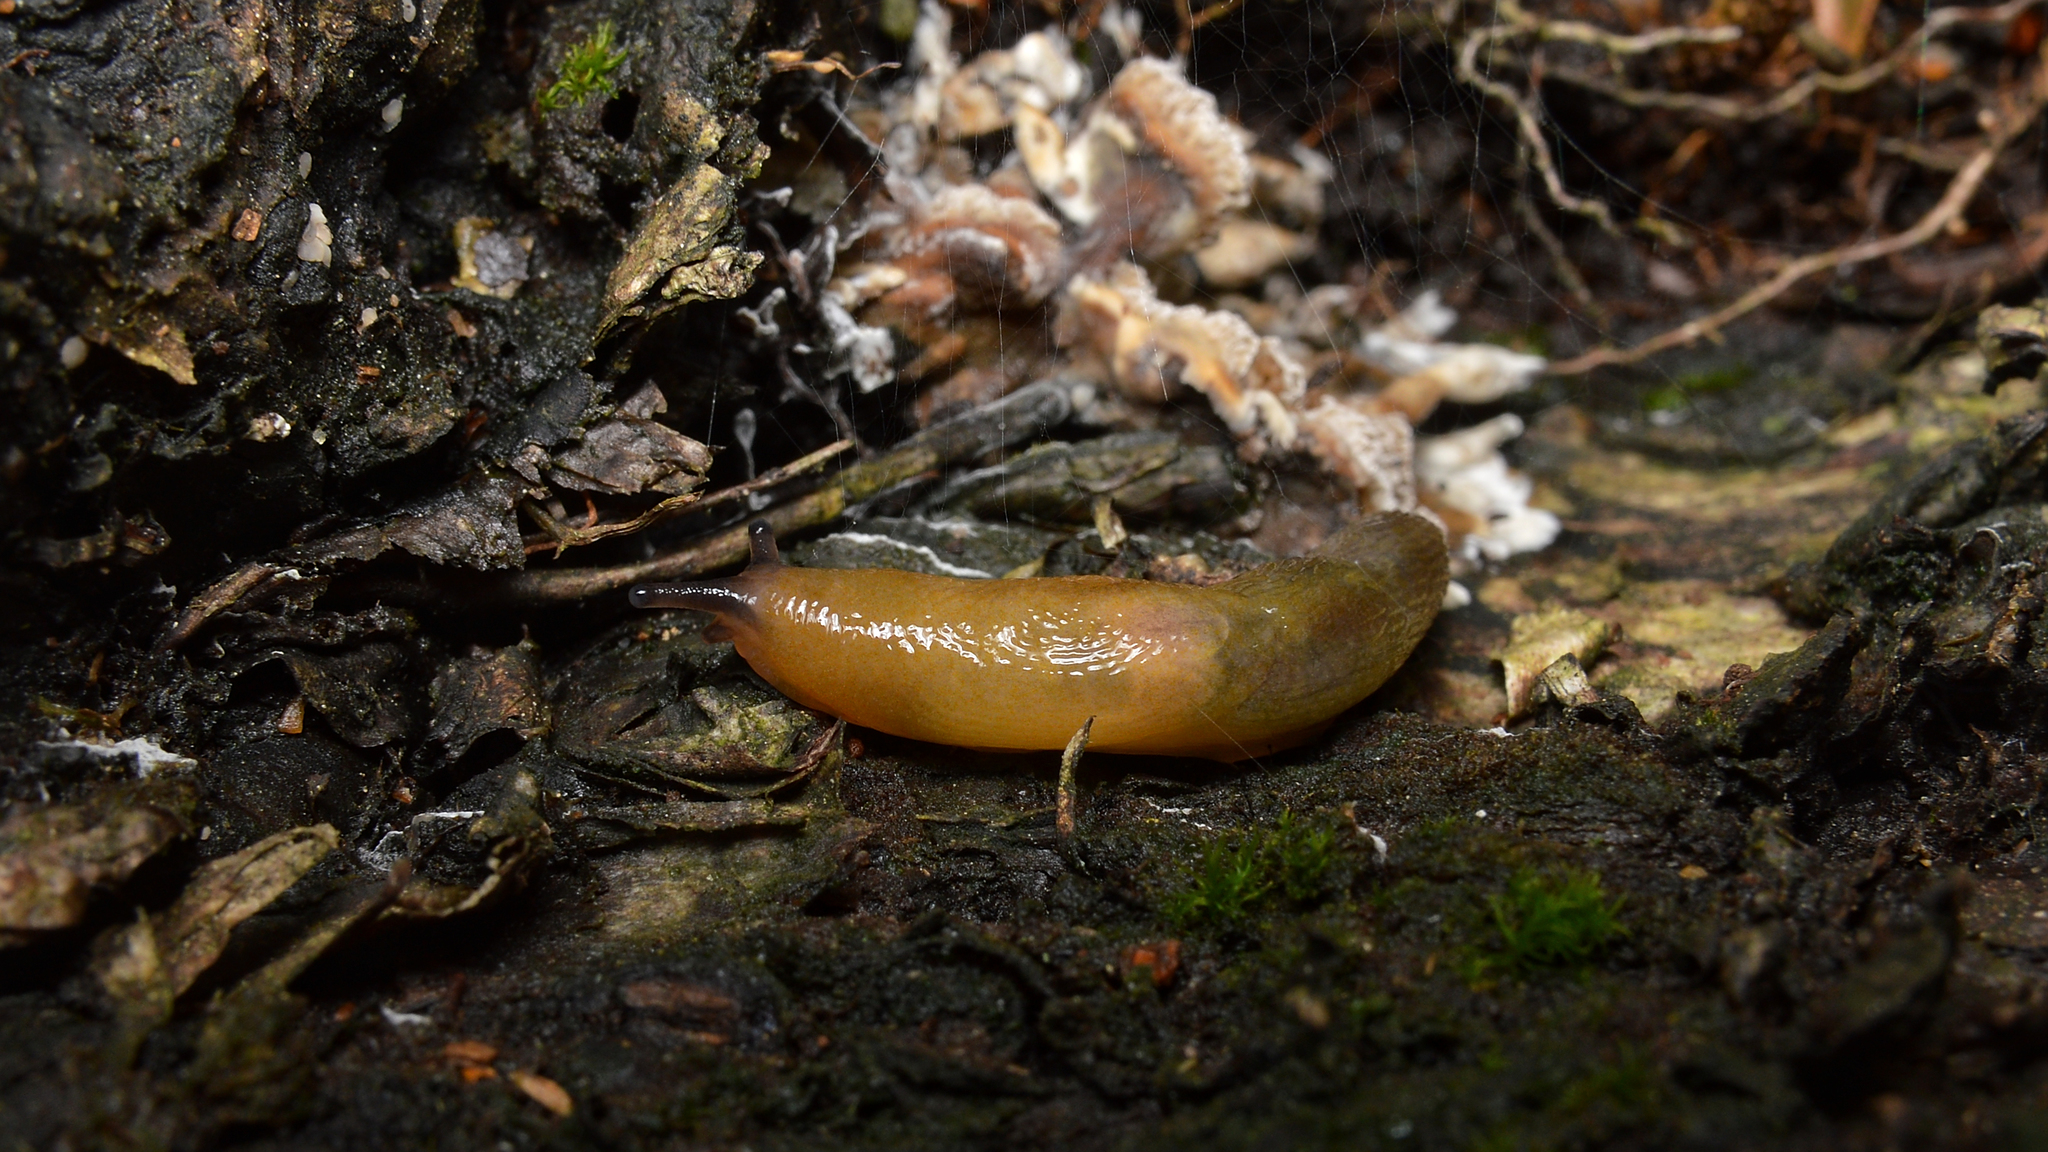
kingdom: Animalia
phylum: Mollusca
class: Gastropoda
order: Stylommatophora
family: Limacidae
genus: Malacolimax
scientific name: Malacolimax tenellus
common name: Lemon slug
